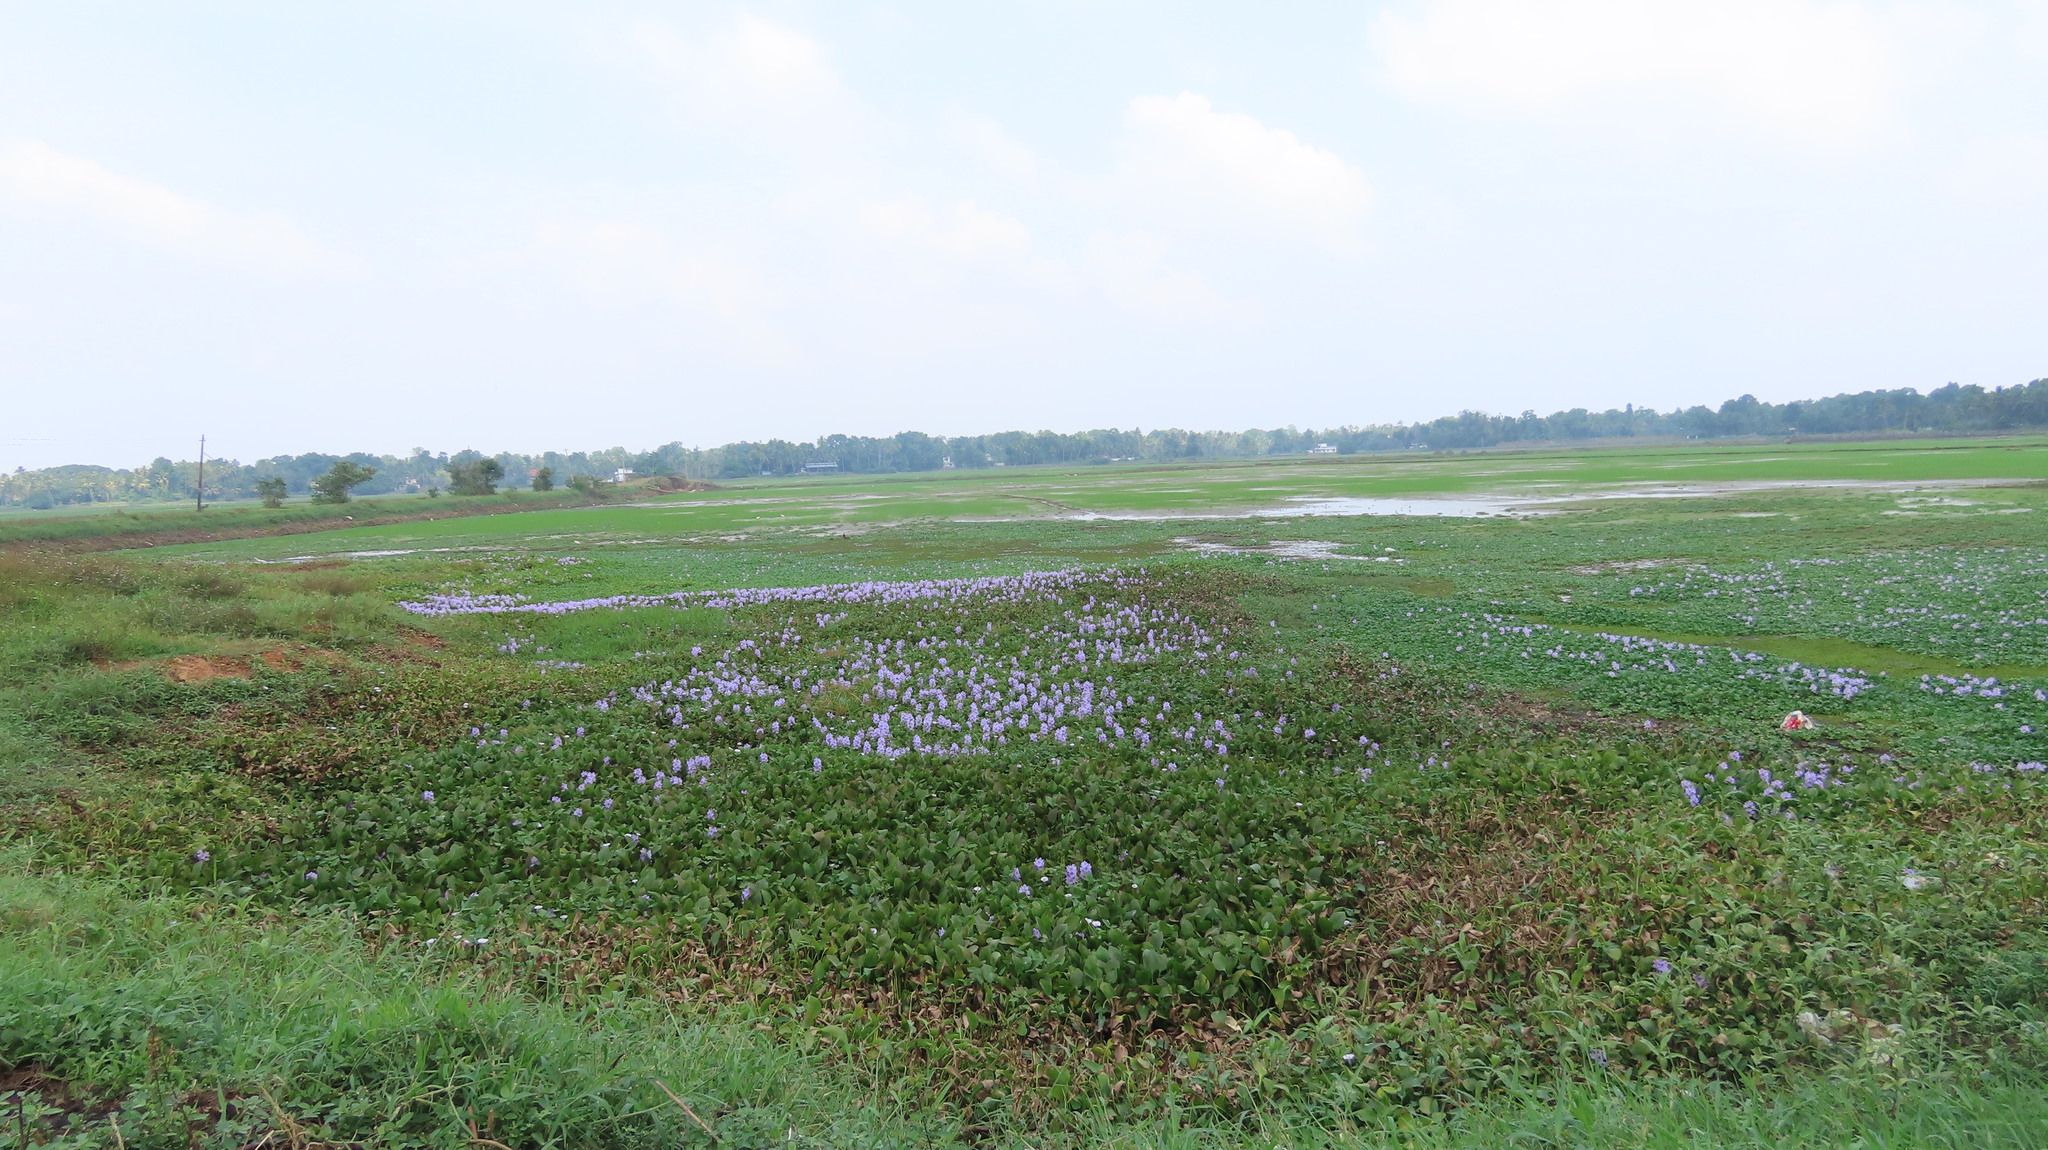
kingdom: Plantae
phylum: Tracheophyta
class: Liliopsida
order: Commelinales
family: Pontederiaceae
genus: Pontederia
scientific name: Pontederia crassipes
